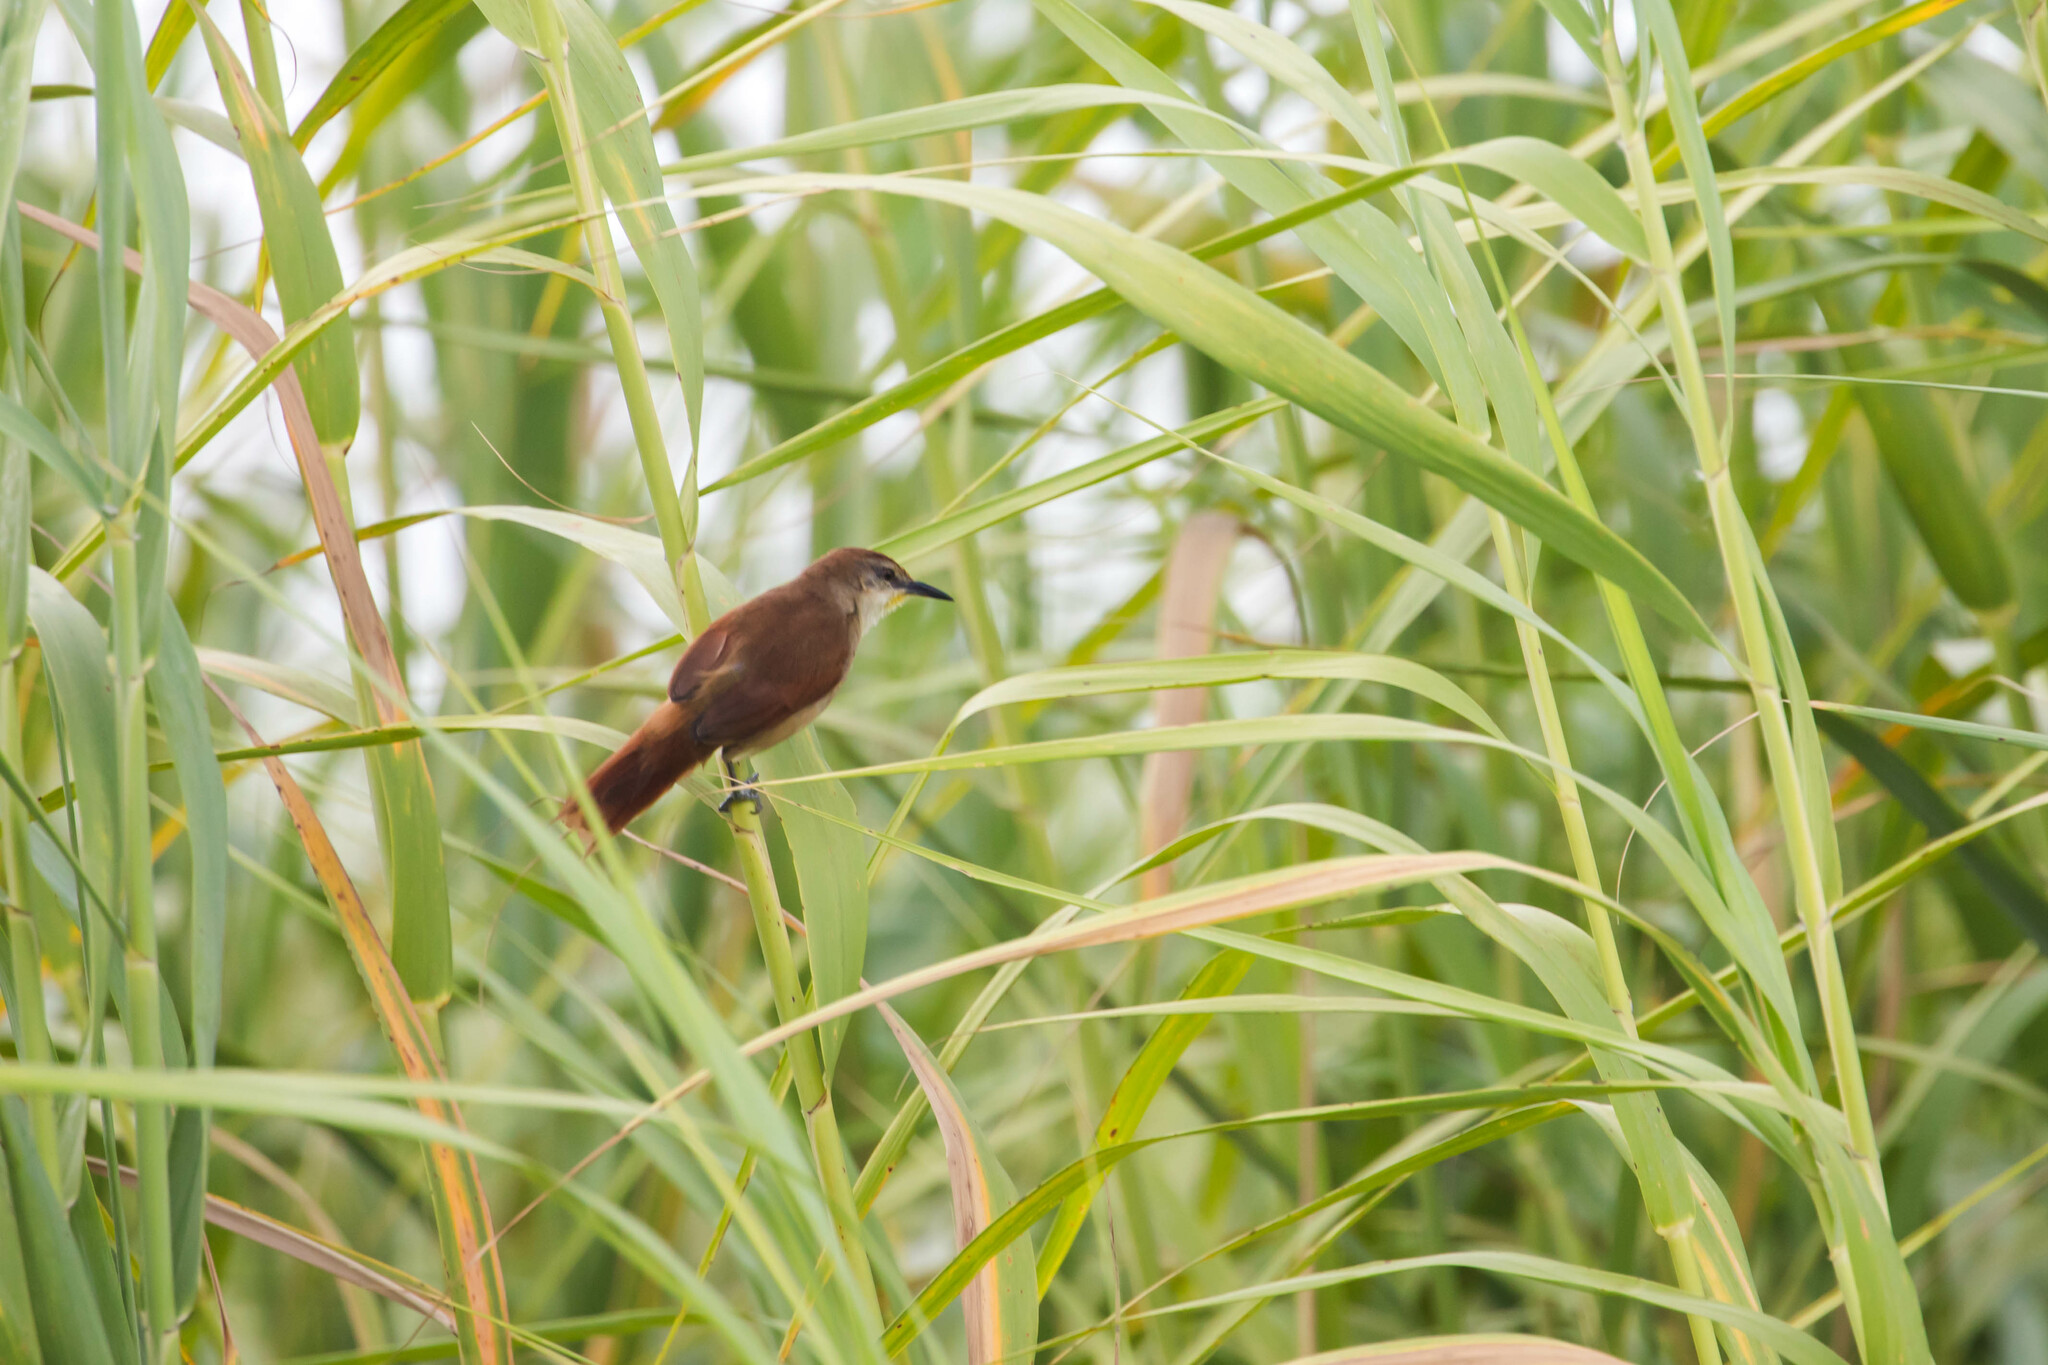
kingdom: Animalia
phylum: Chordata
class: Aves
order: Passeriformes
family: Furnariidae
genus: Certhiaxis
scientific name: Certhiaxis cinnamomeus
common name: Yellow-chinned spinetail
